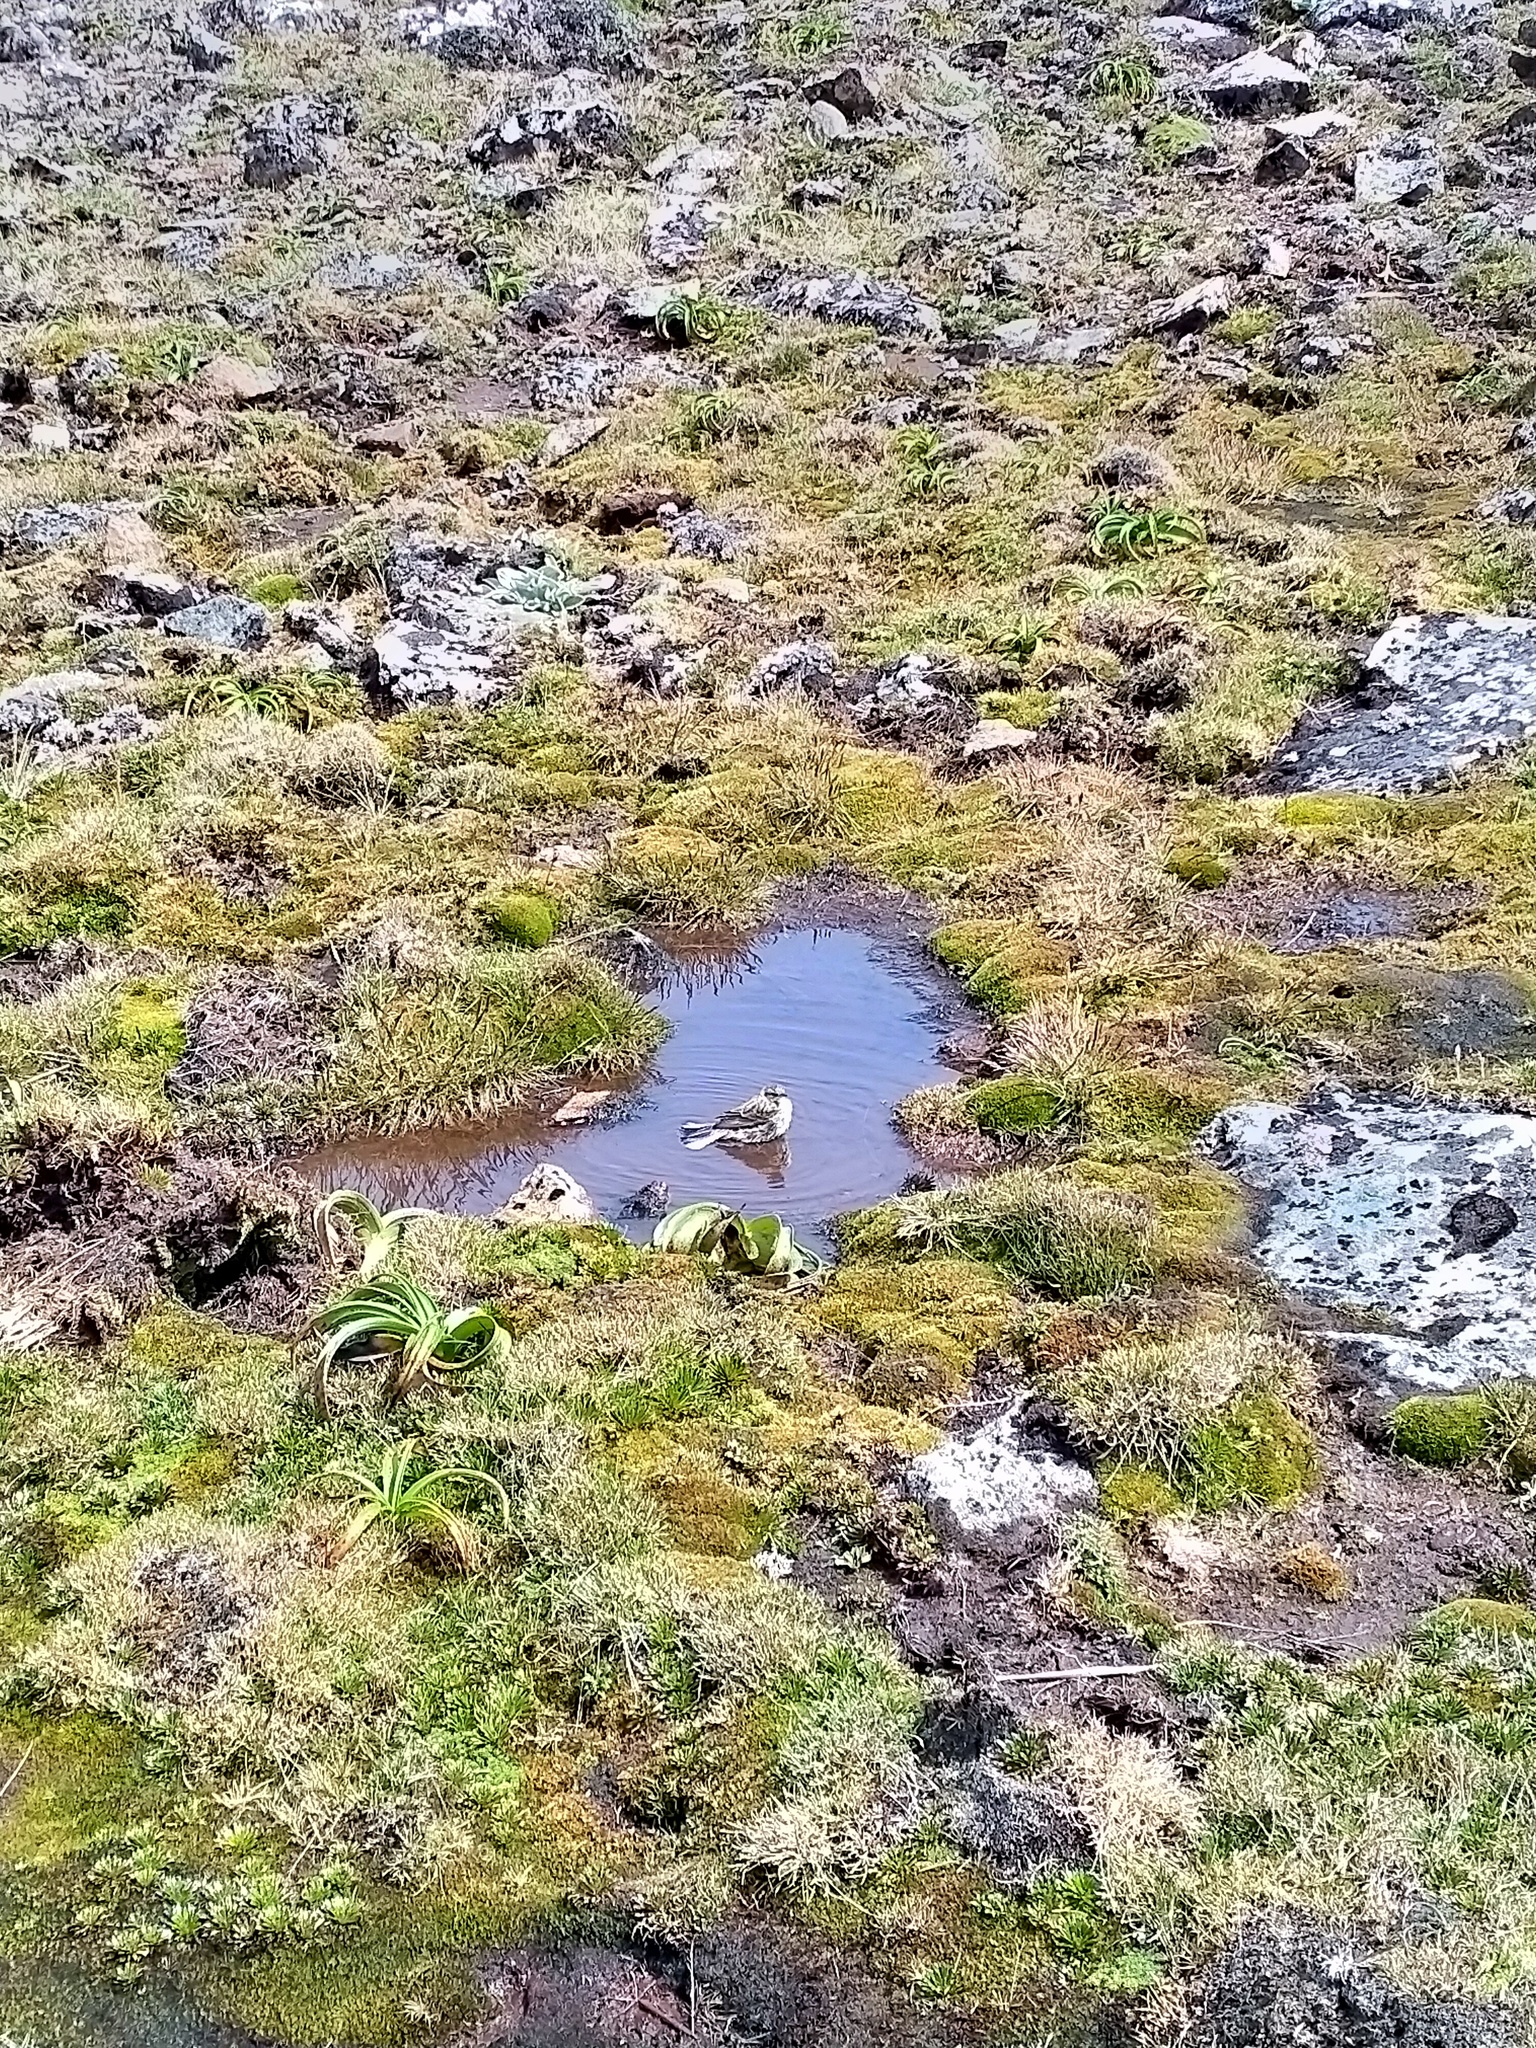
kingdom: Animalia
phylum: Chordata
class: Aves
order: Passeriformes
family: Motacillidae
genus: Anthus
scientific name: Anthus novaeseelandiae
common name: New zealand pipit
